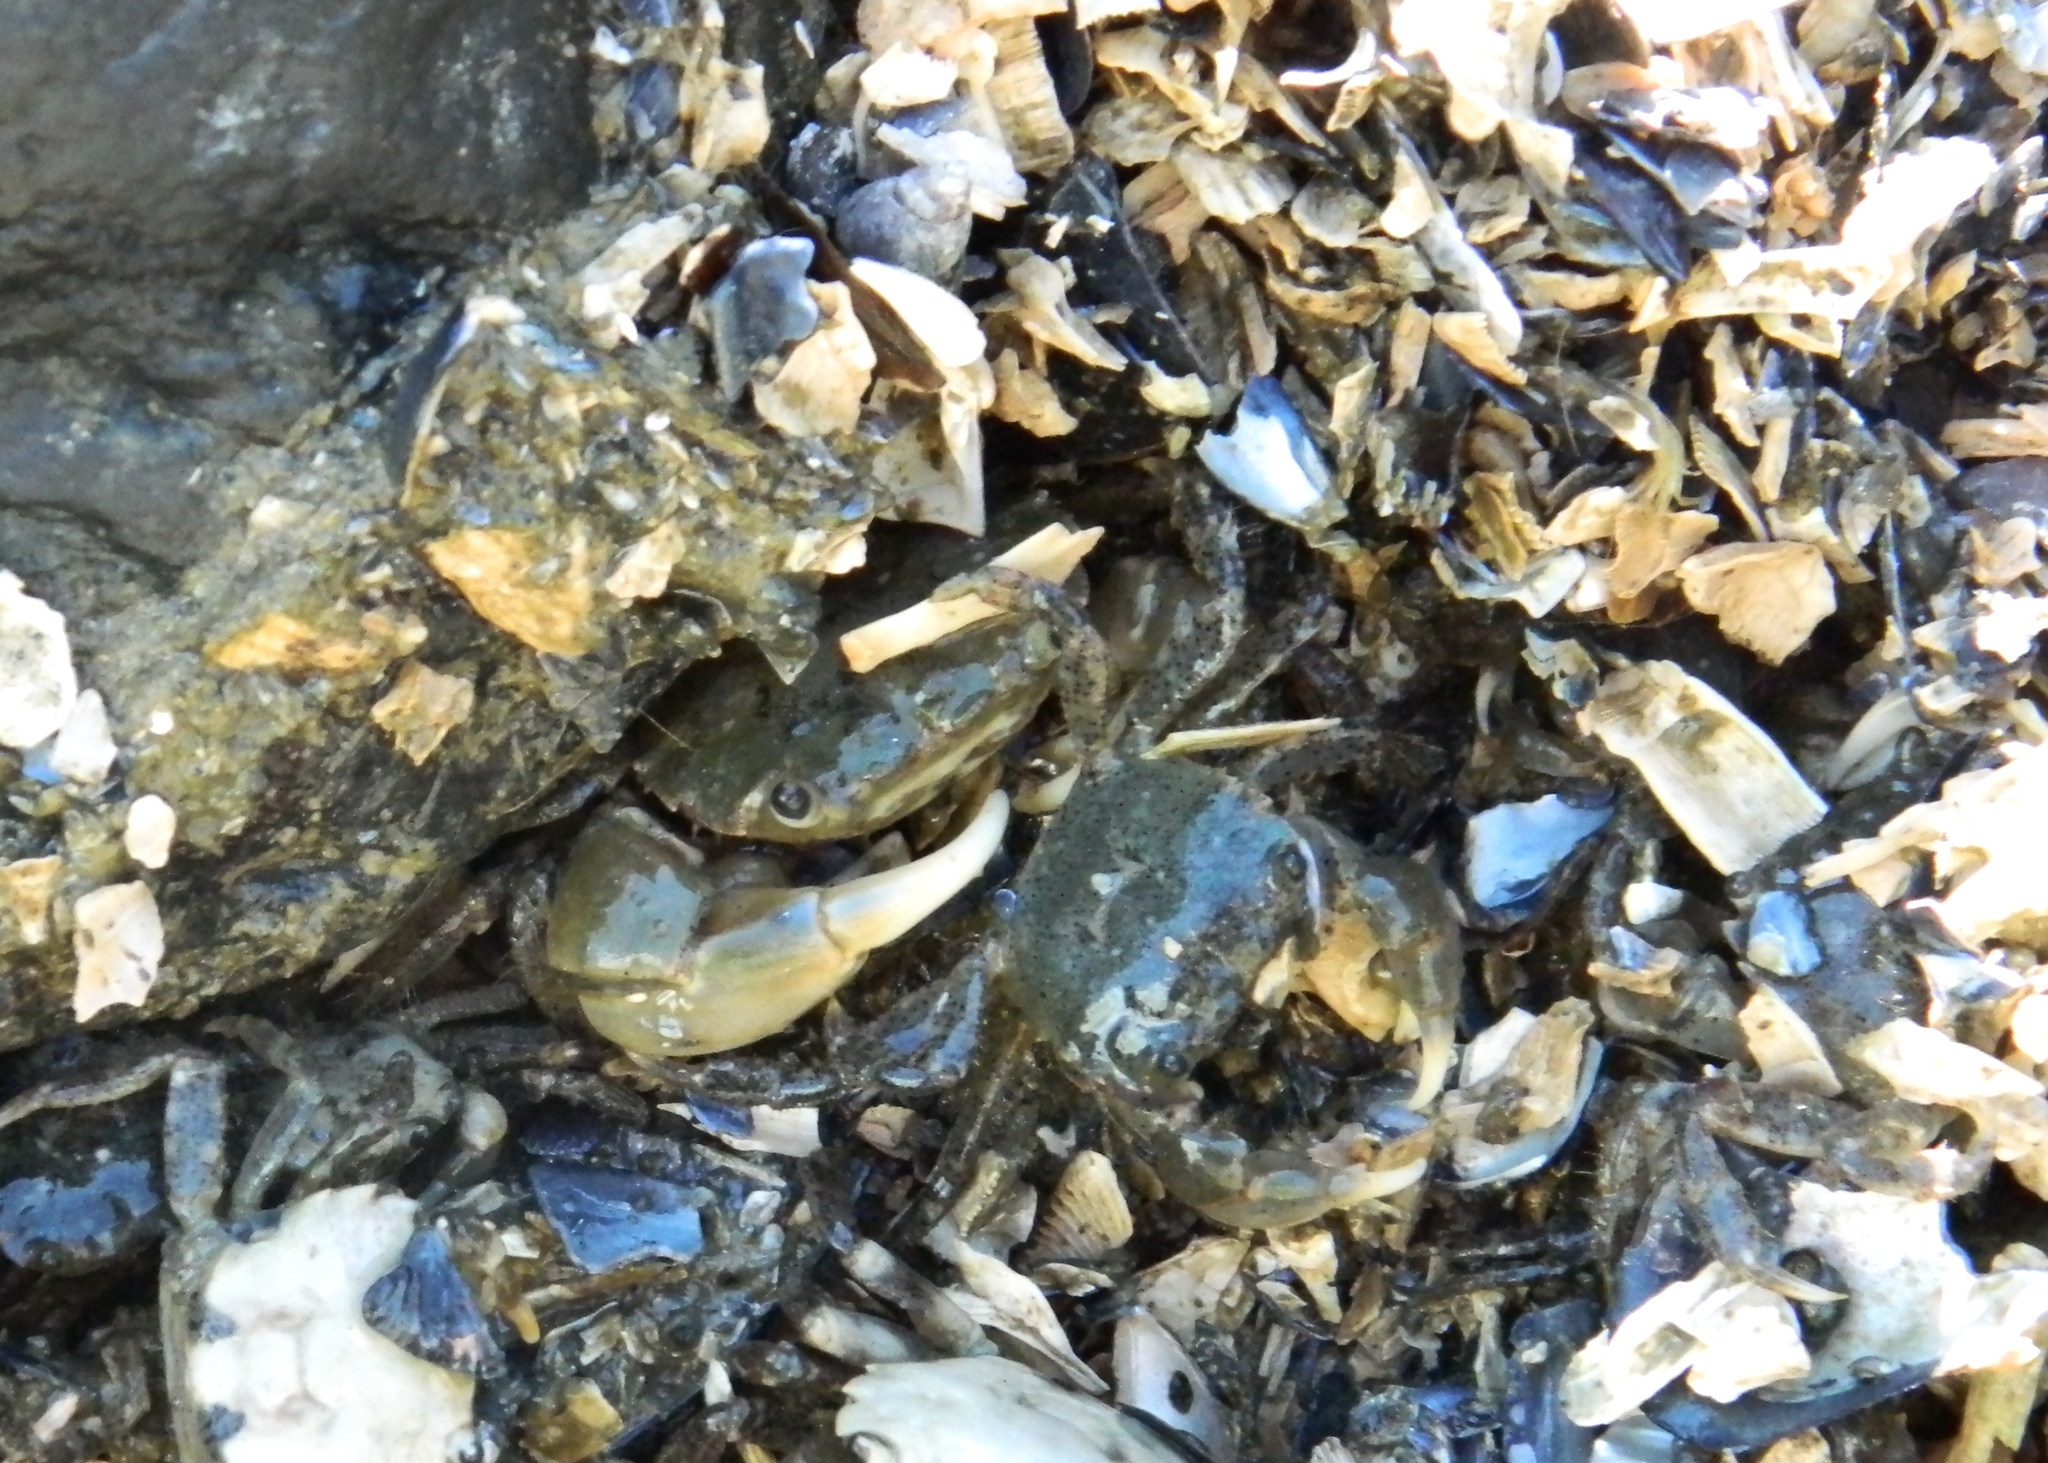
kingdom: Animalia
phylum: Arthropoda
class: Malacostraca
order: Decapoda
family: Varunidae
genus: Hemigrapsus
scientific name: Hemigrapsus oregonensis
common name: Yellow shore crab
